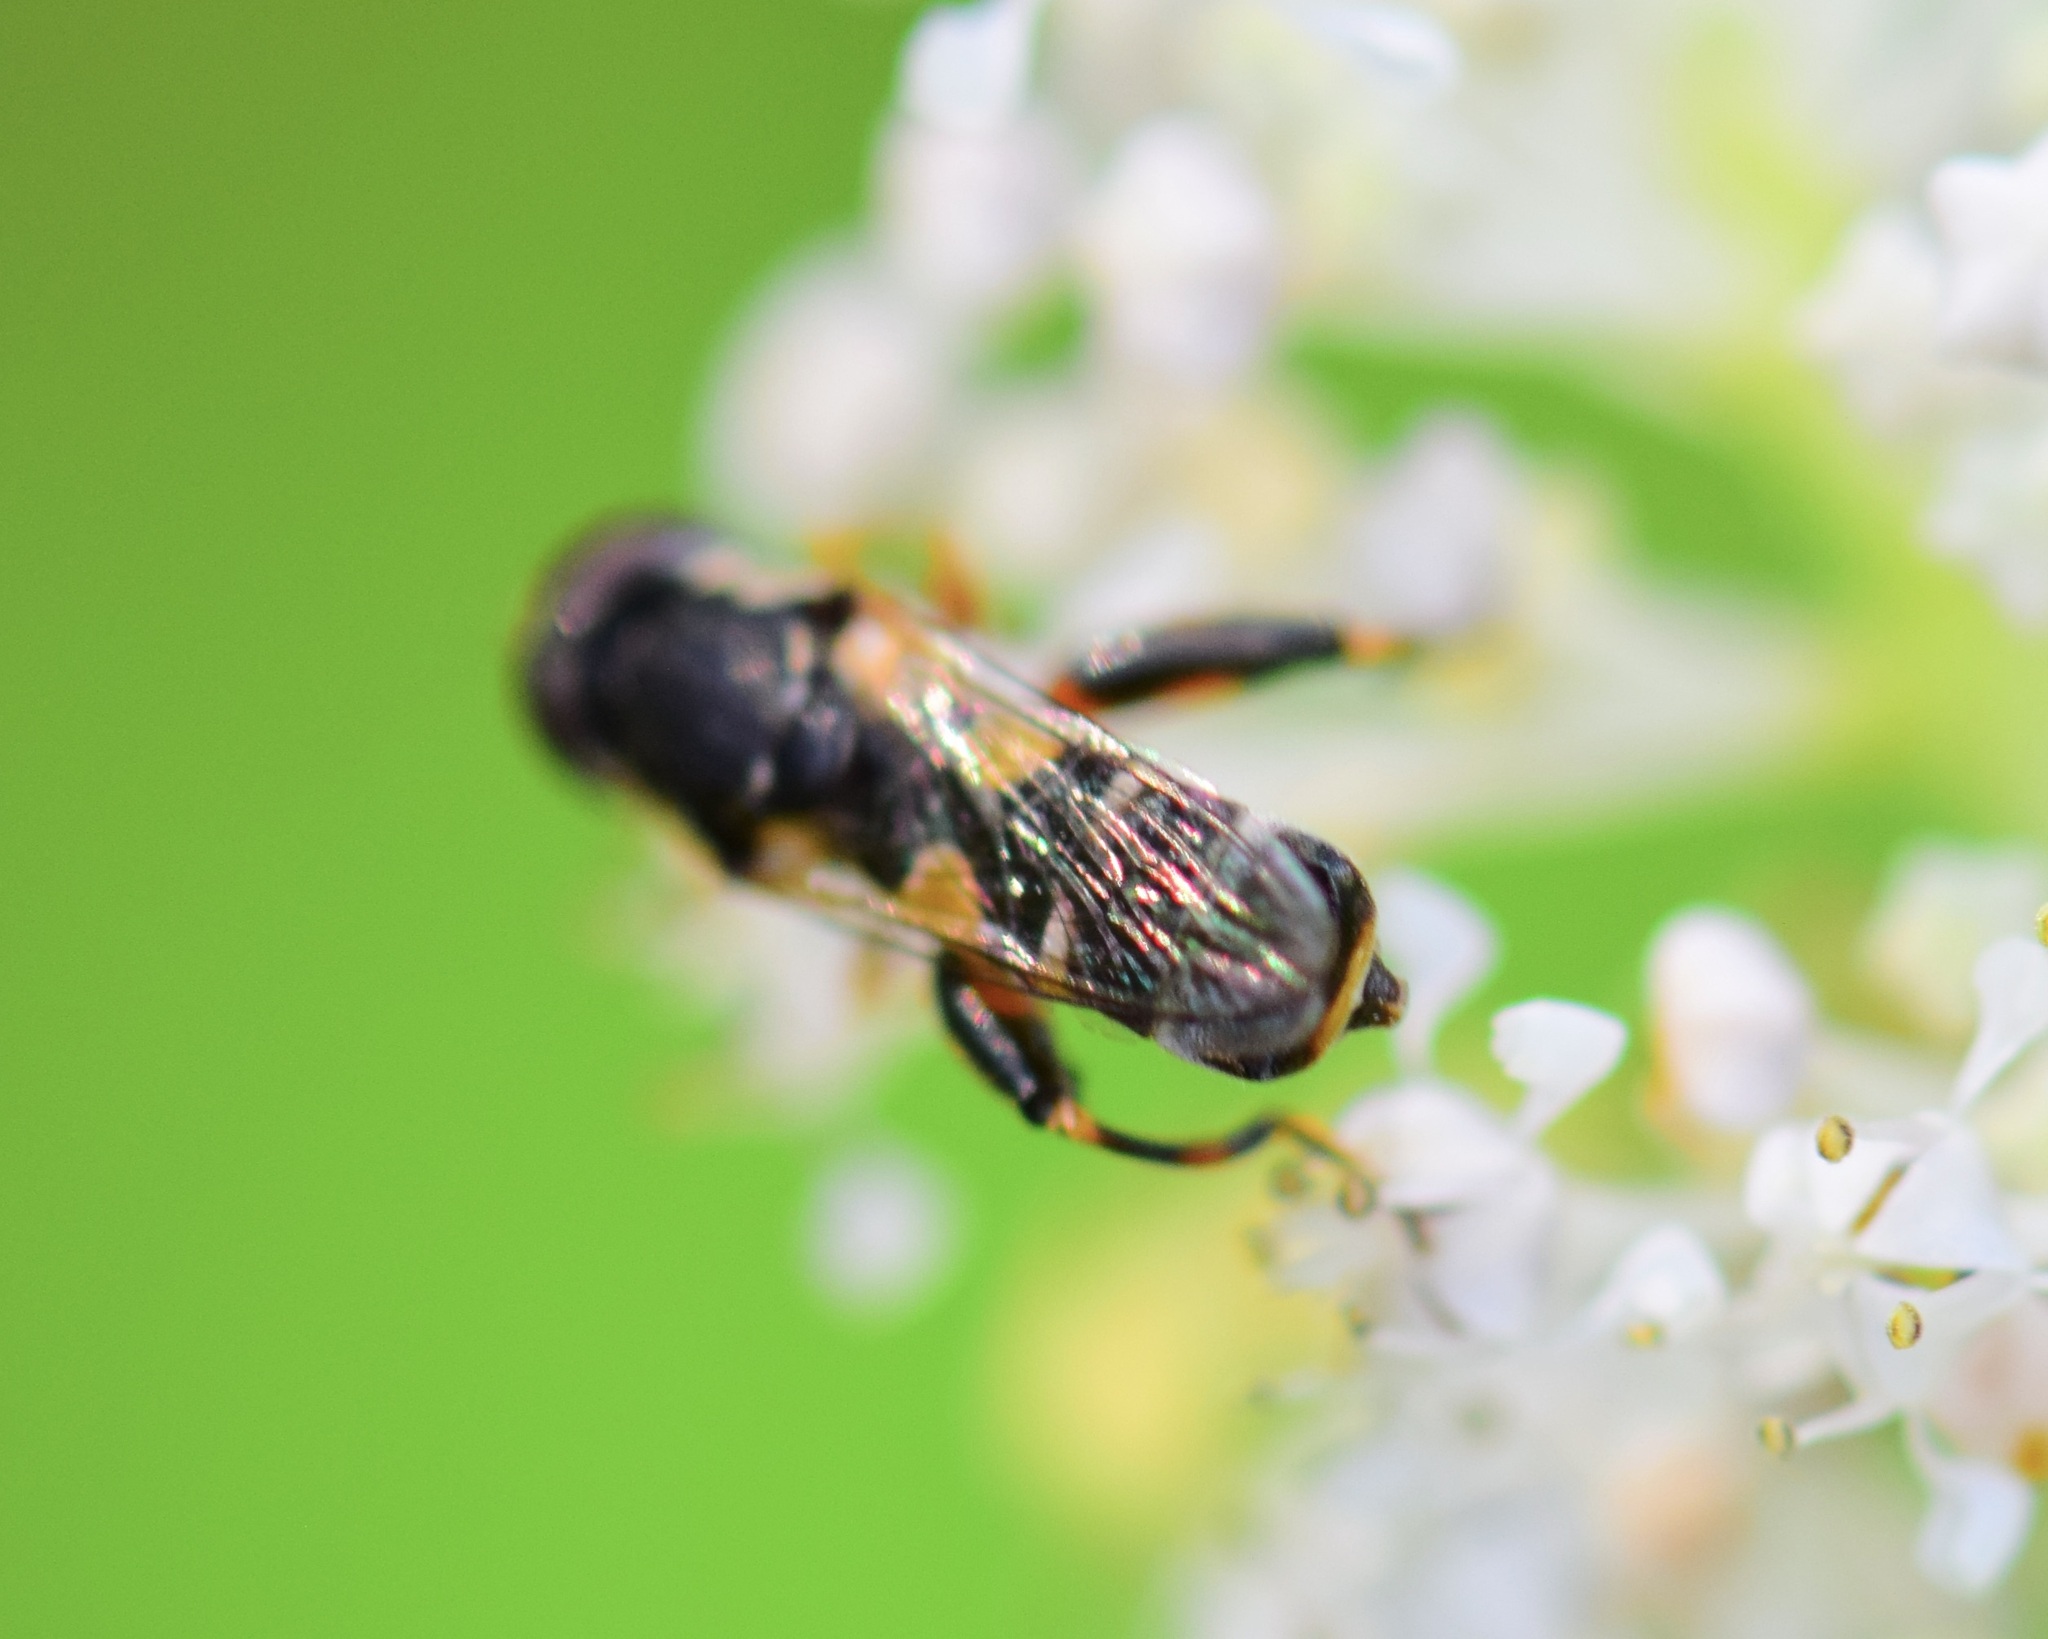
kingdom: Animalia
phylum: Arthropoda
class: Insecta
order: Diptera
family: Syrphidae
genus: Syritta
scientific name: Syritta pipiens
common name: Hover fly
